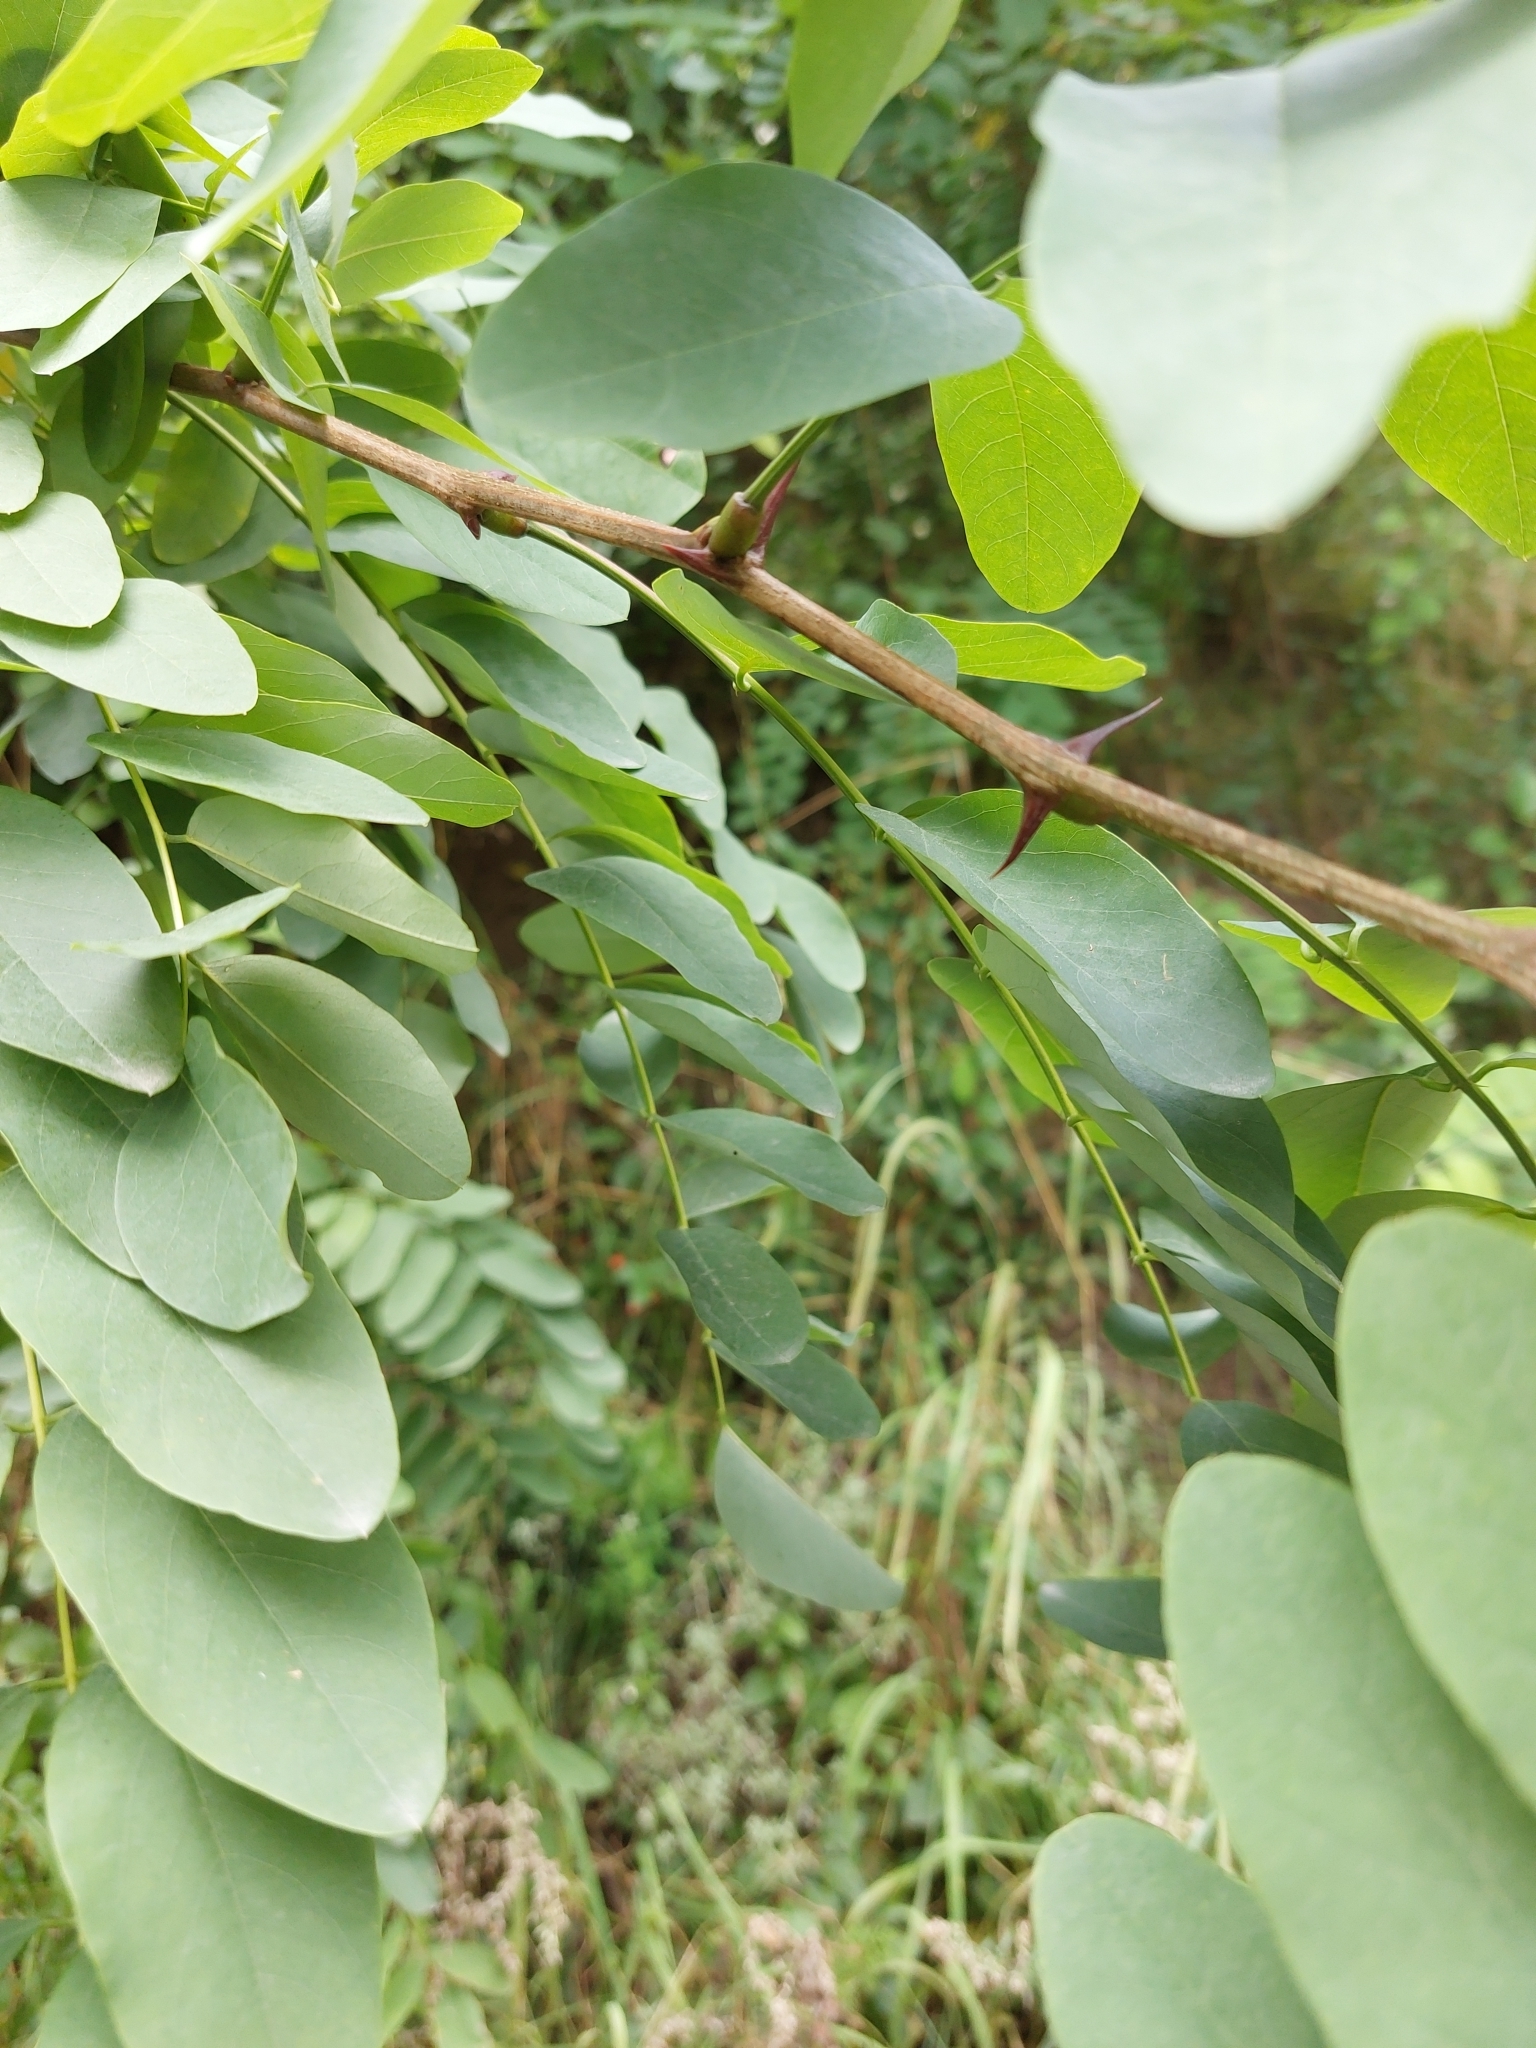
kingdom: Plantae
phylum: Tracheophyta
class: Magnoliopsida
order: Fabales
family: Fabaceae
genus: Robinia
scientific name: Robinia pseudoacacia
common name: Black locust
